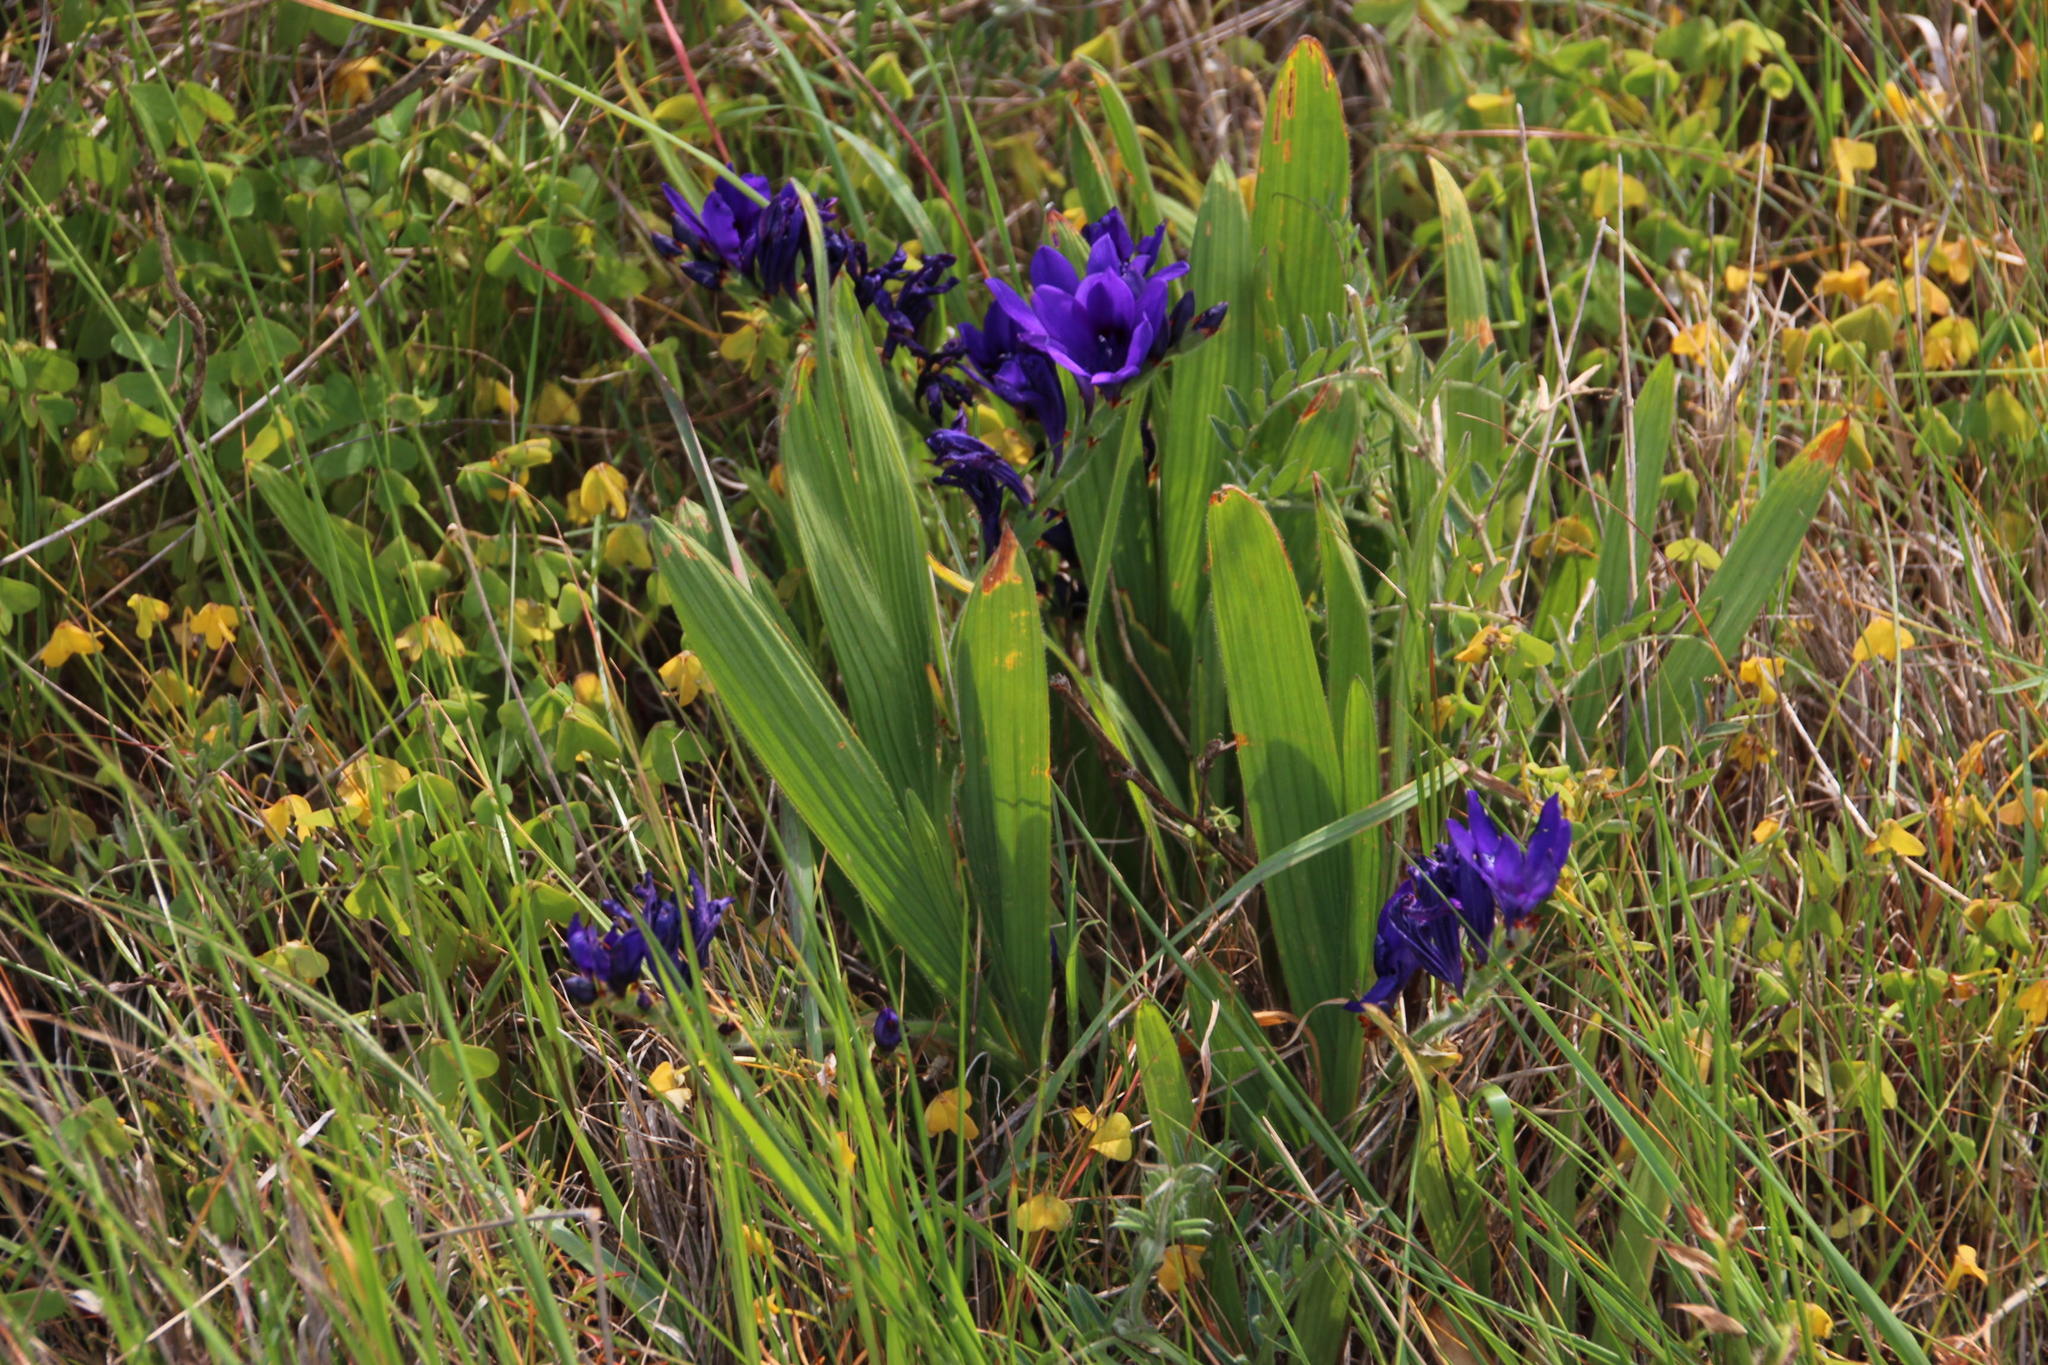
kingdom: Plantae
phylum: Tracheophyta
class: Liliopsida
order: Asparagales
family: Iridaceae
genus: Babiana
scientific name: Babiana angustifolia
